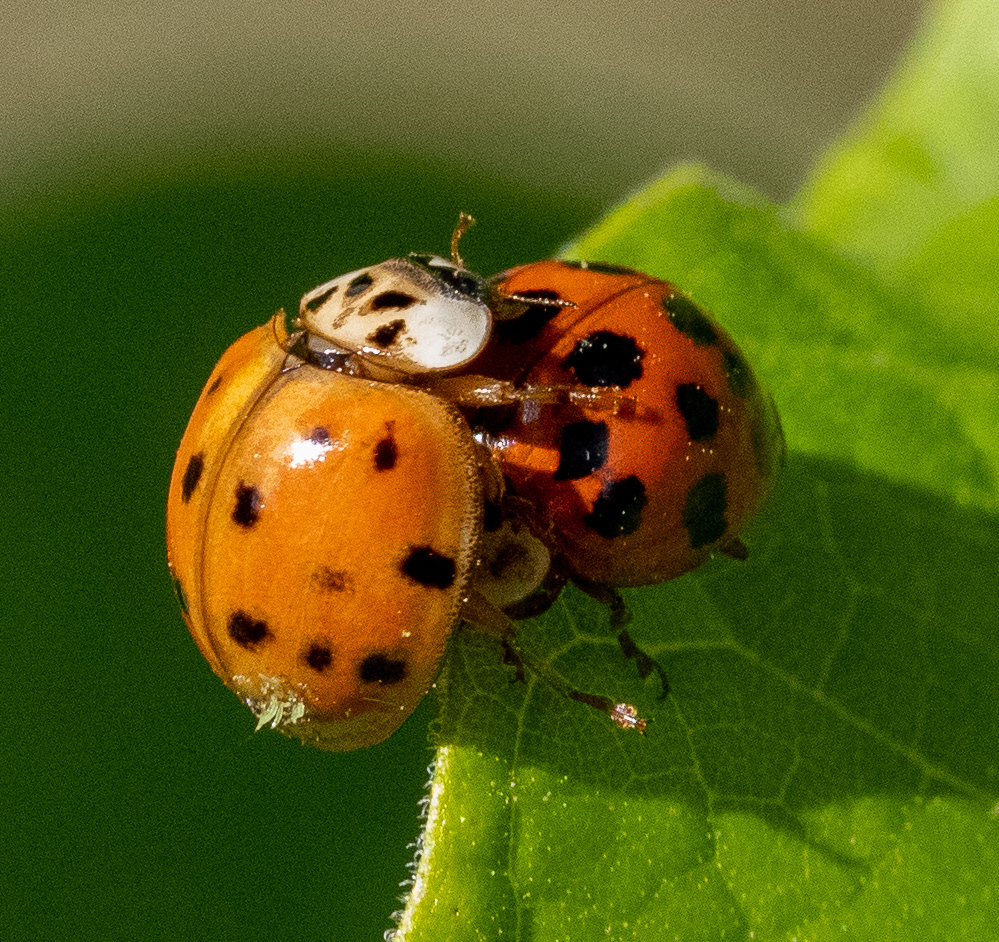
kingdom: Animalia
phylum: Arthropoda
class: Insecta
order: Coleoptera
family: Coccinellidae
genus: Harmonia
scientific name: Harmonia axyridis
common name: Harlequin ladybird
